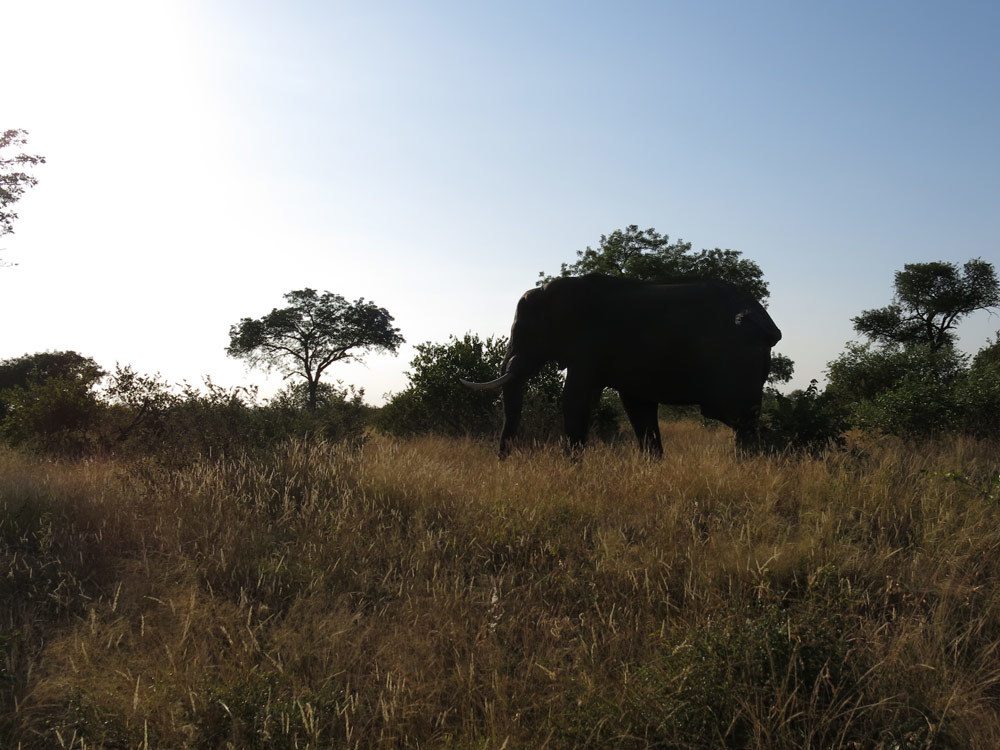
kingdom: Animalia
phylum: Chordata
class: Mammalia
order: Proboscidea
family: Elephantidae
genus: Loxodonta
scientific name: Loxodonta africana
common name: African elephant
